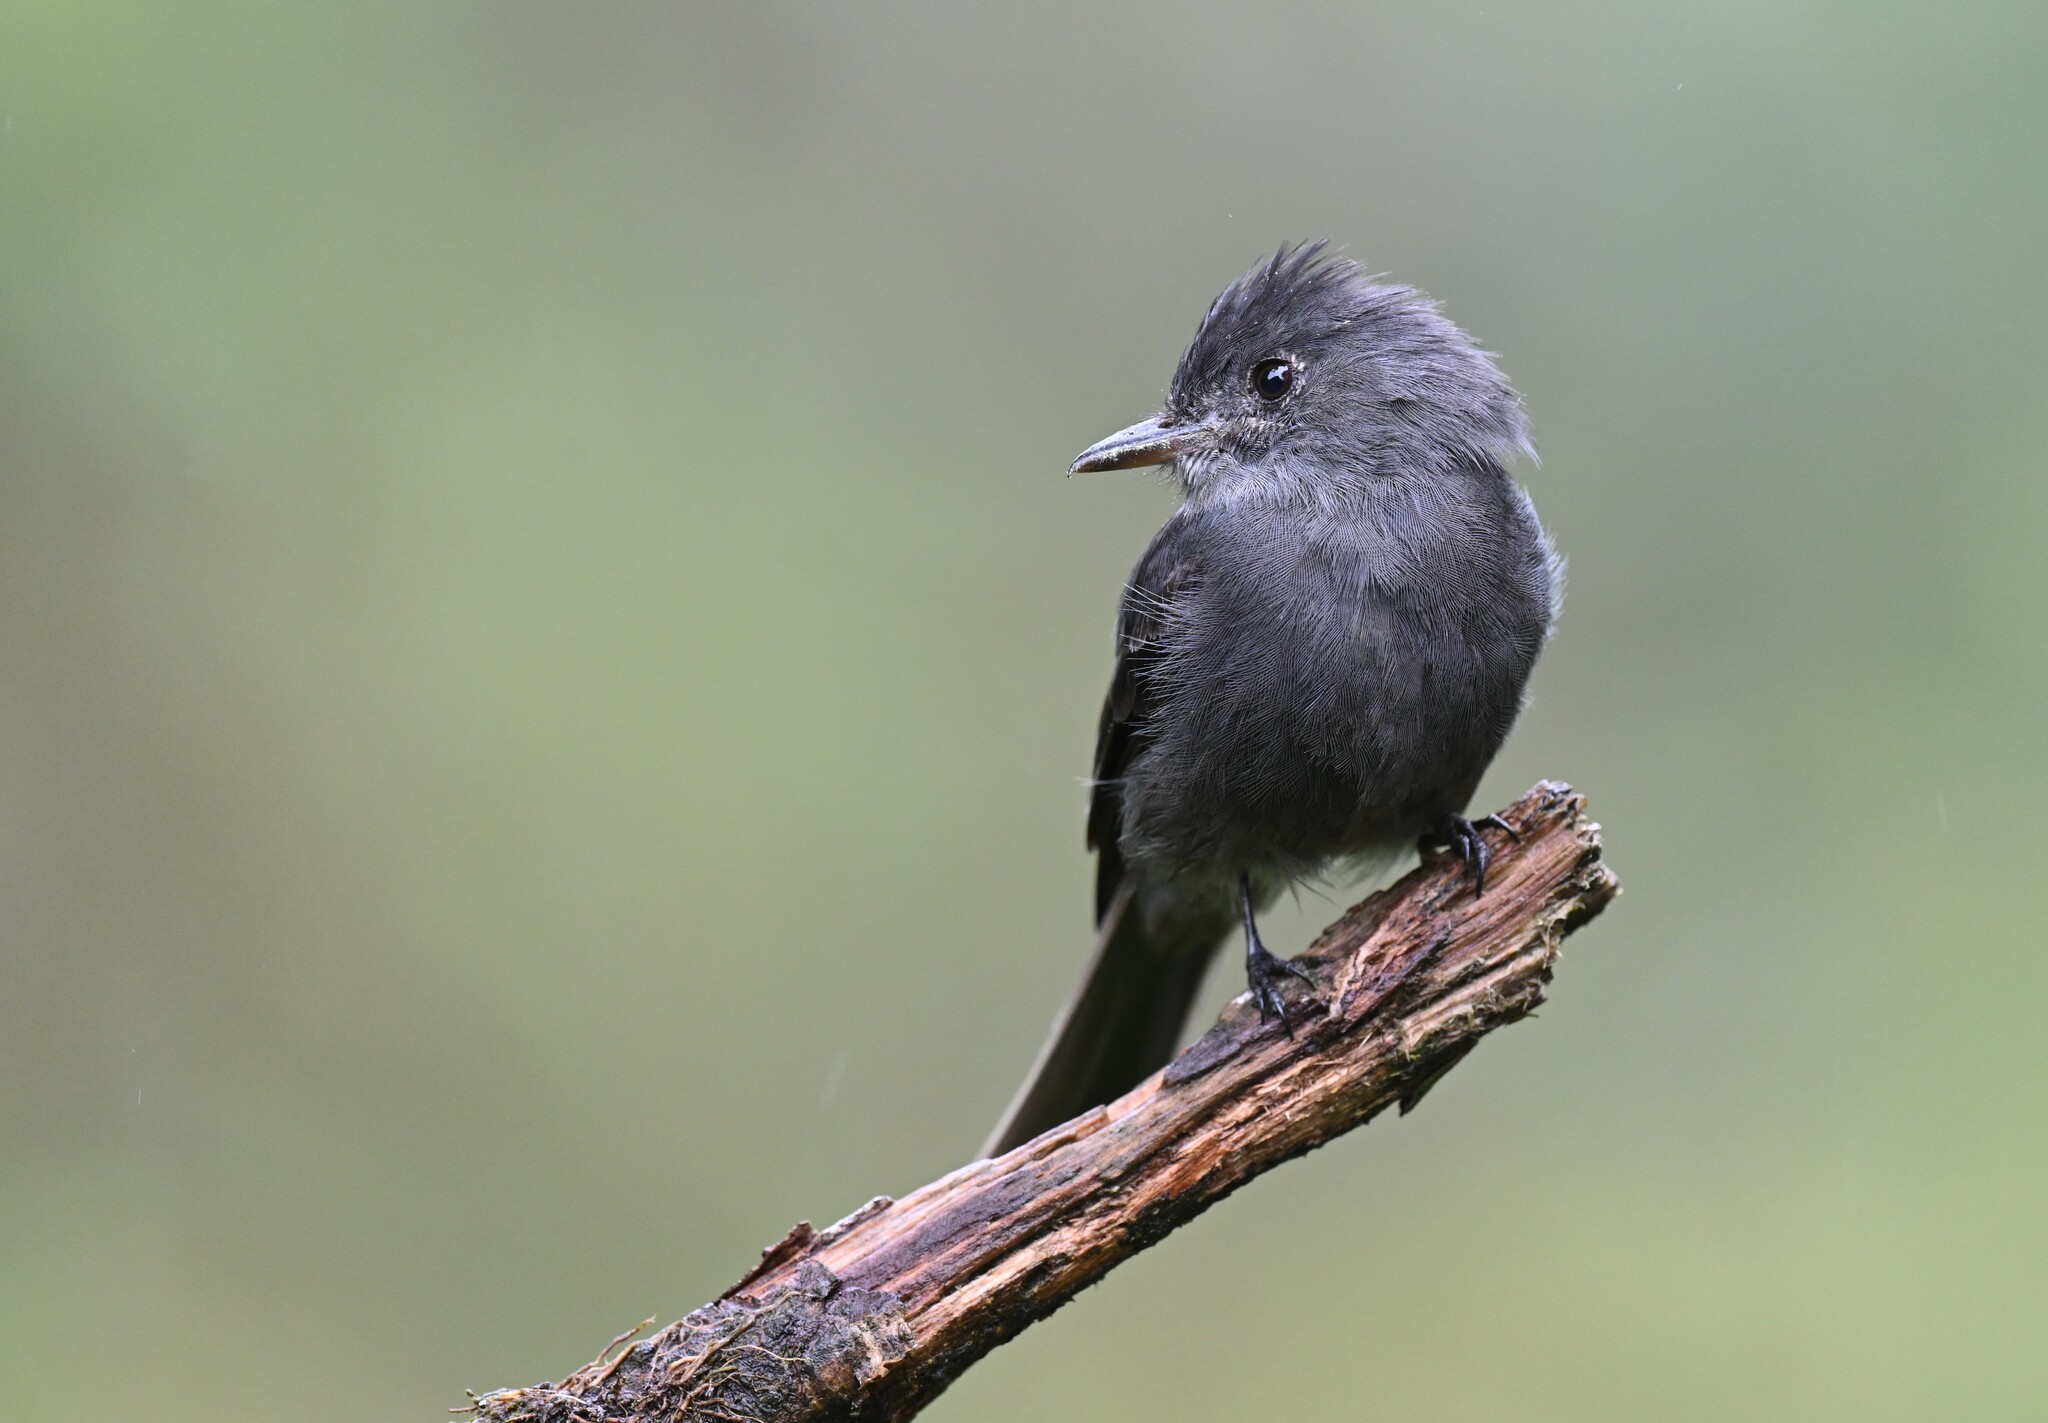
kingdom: Animalia
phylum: Chordata
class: Aves
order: Passeriformes
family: Tyrannidae
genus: Contopus
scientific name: Contopus fumigatus
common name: Smoke-colored pewee
